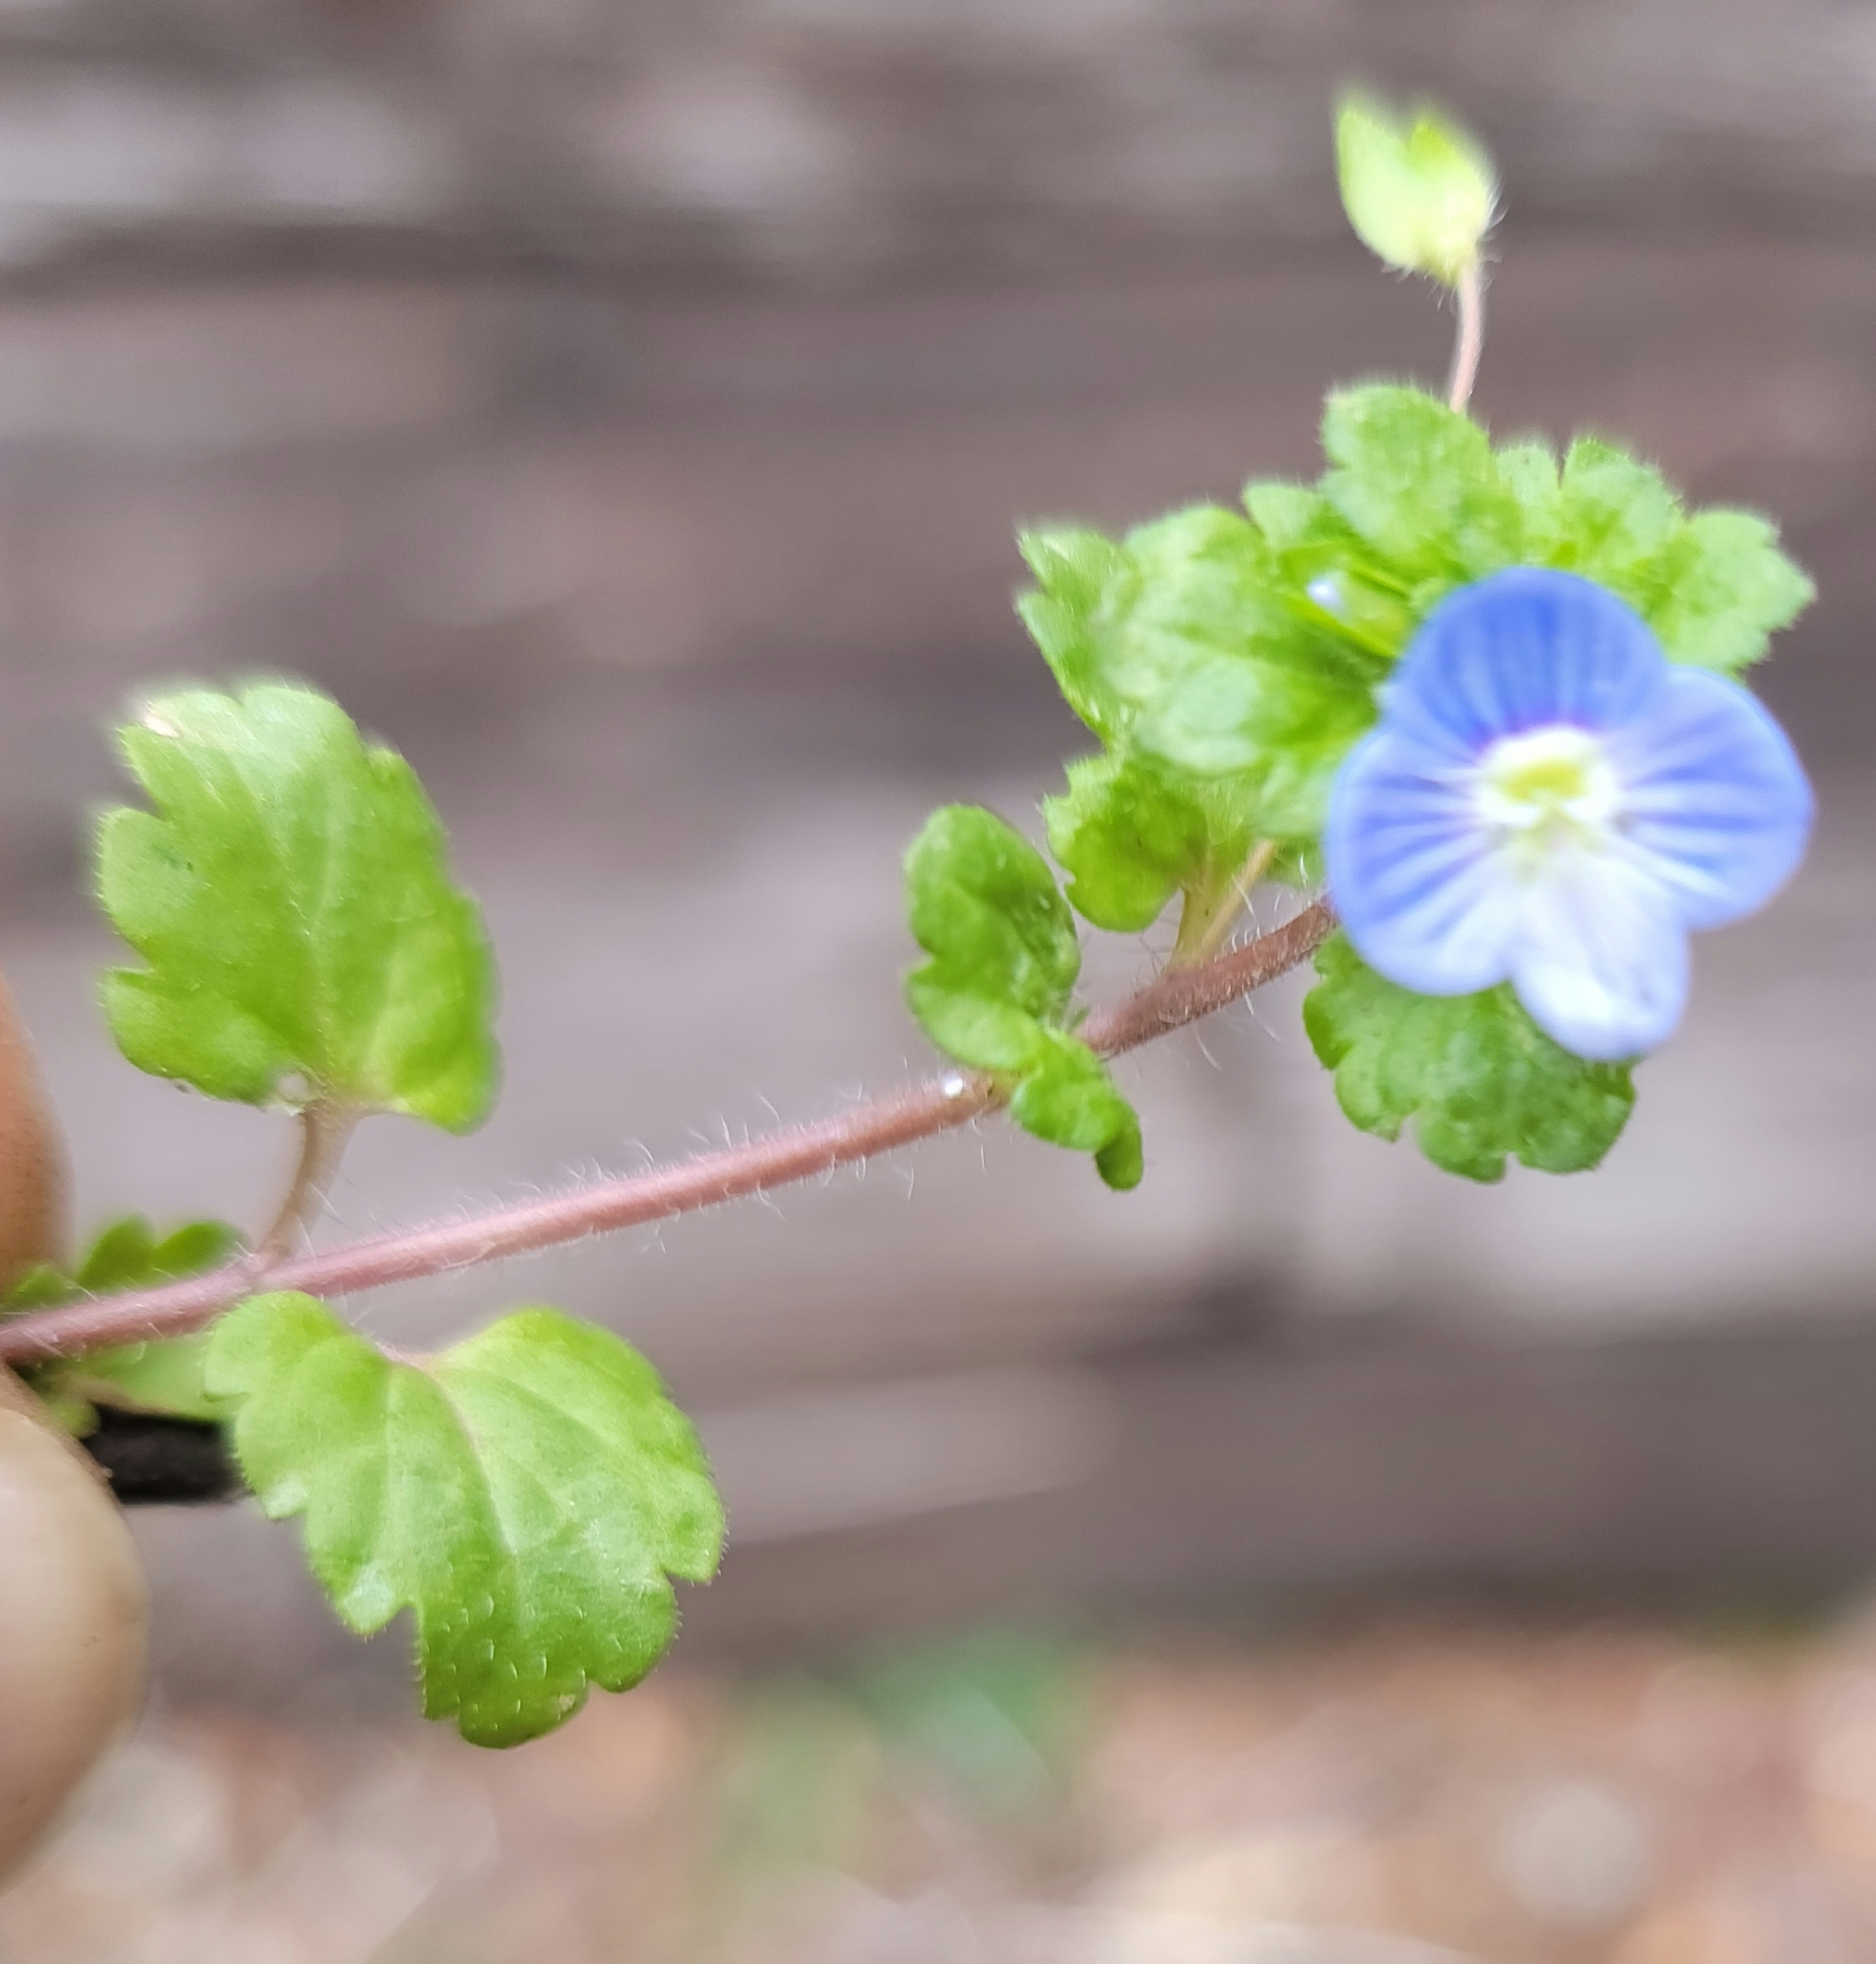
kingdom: Plantae
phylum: Tracheophyta
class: Magnoliopsida
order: Lamiales
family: Plantaginaceae
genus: Veronica
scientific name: Veronica persica
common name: Common field-speedwell
